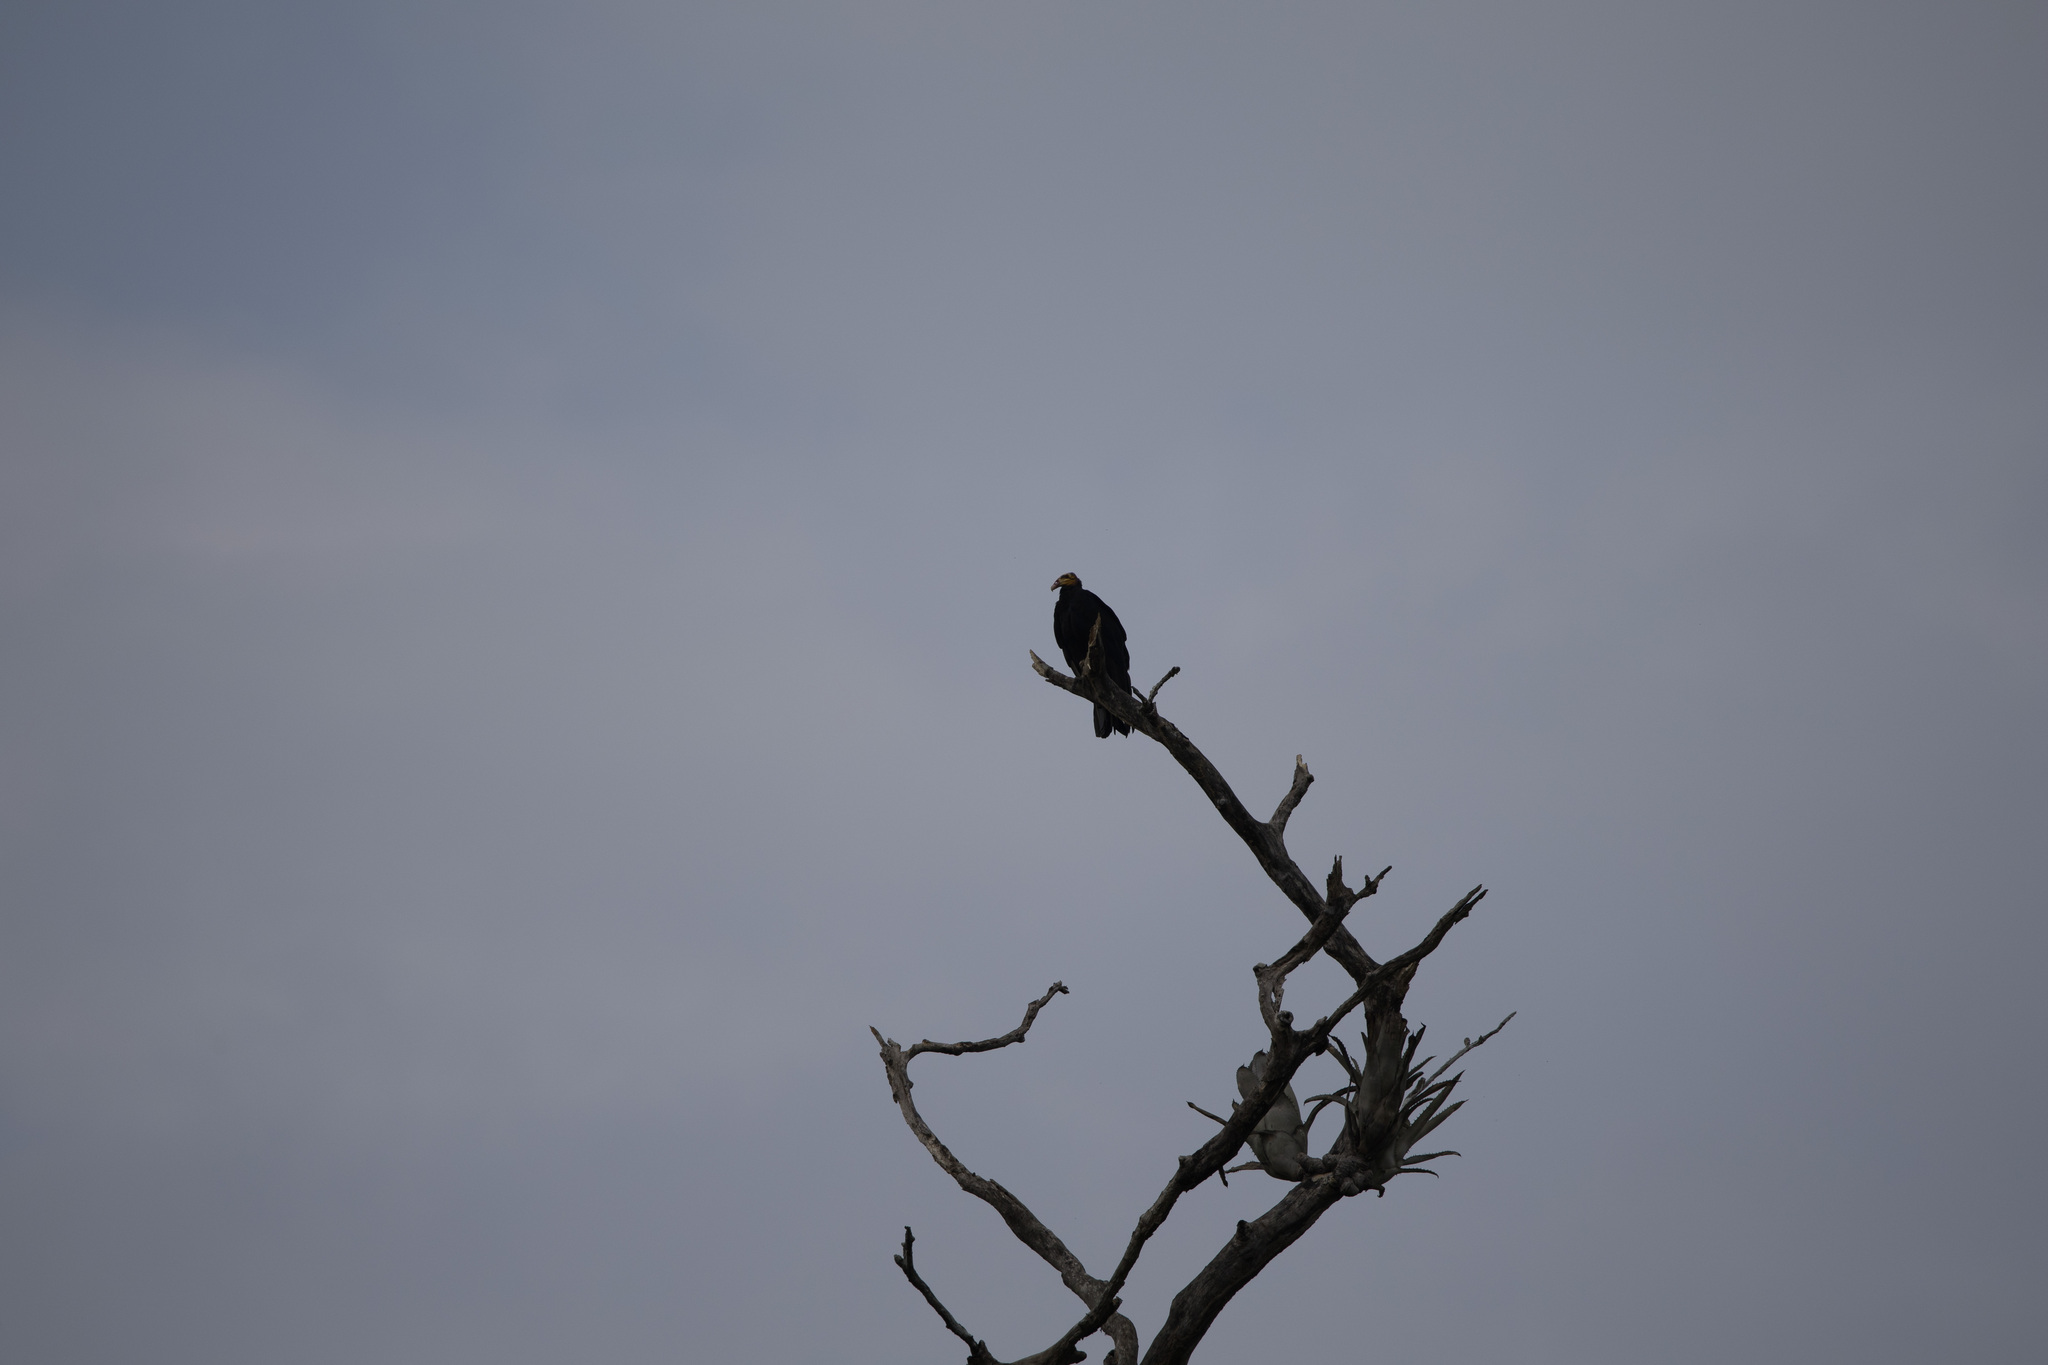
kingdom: Animalia
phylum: Chordata
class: Aves
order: Accipitriformes
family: Cathartidae
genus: Cathartes
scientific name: Cathartes melambrotus
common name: Greater yellow-headed vulture
